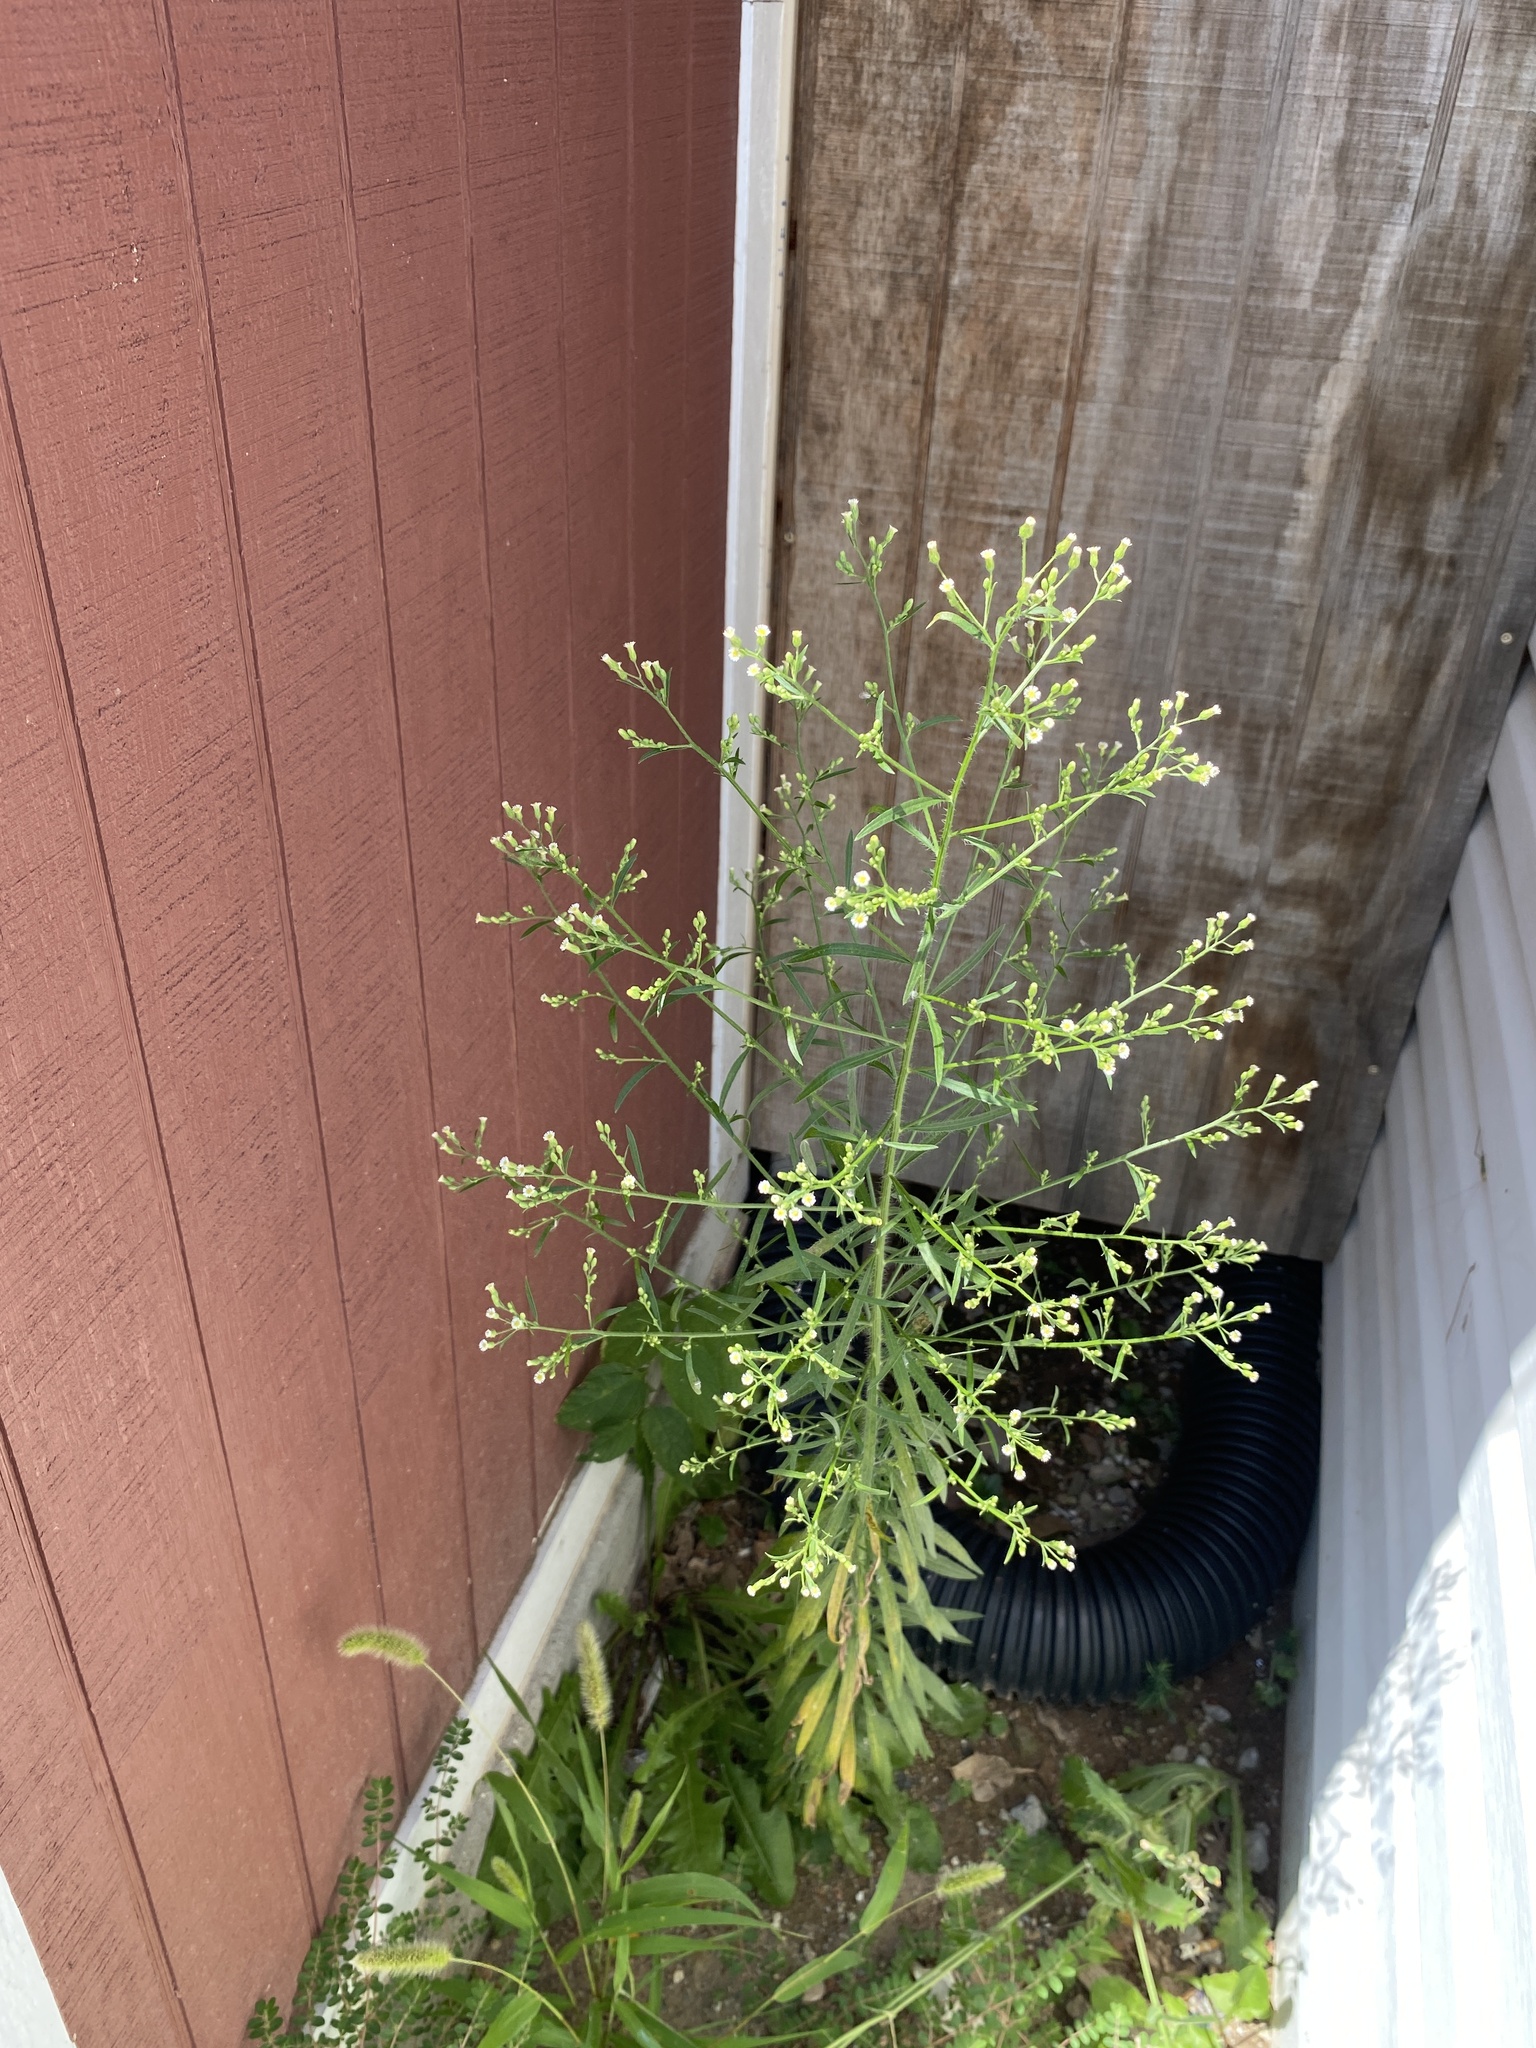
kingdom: Plantae
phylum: Tracheophyta
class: Magnoliopsida
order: Asterales
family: Asteraceae
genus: Erigeron
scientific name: Erigeron canadensis
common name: Canadian fleabane
